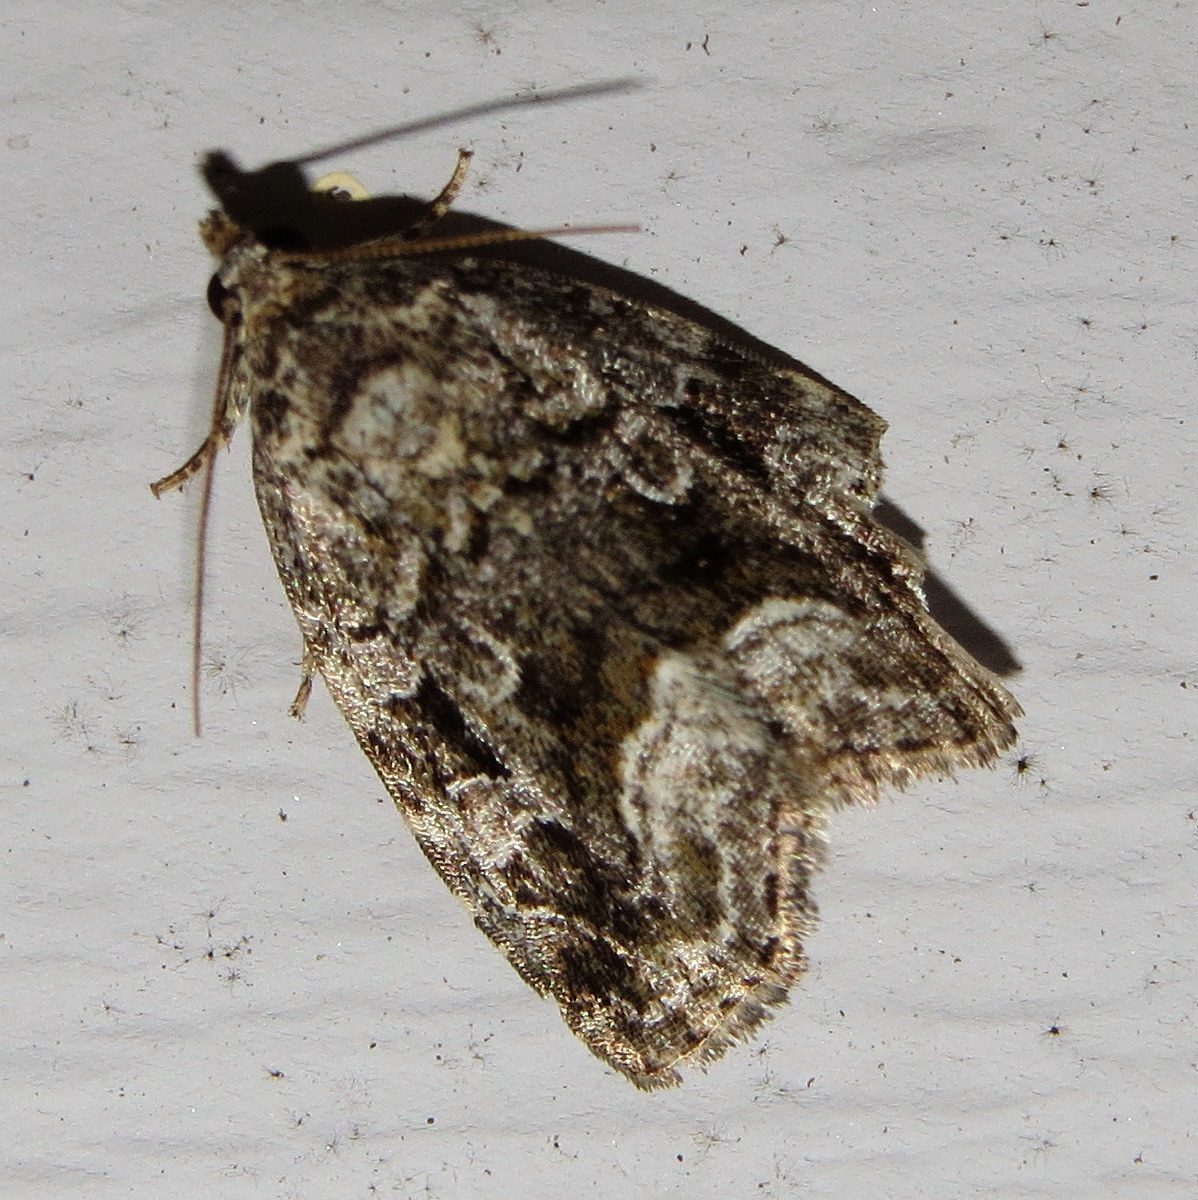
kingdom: Animalia
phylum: Arthropoda
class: Insecta
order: Lepidoptera
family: Noctuidae
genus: Protodeltote
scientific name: Protodeltote muscosula
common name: Large mossy glyph
